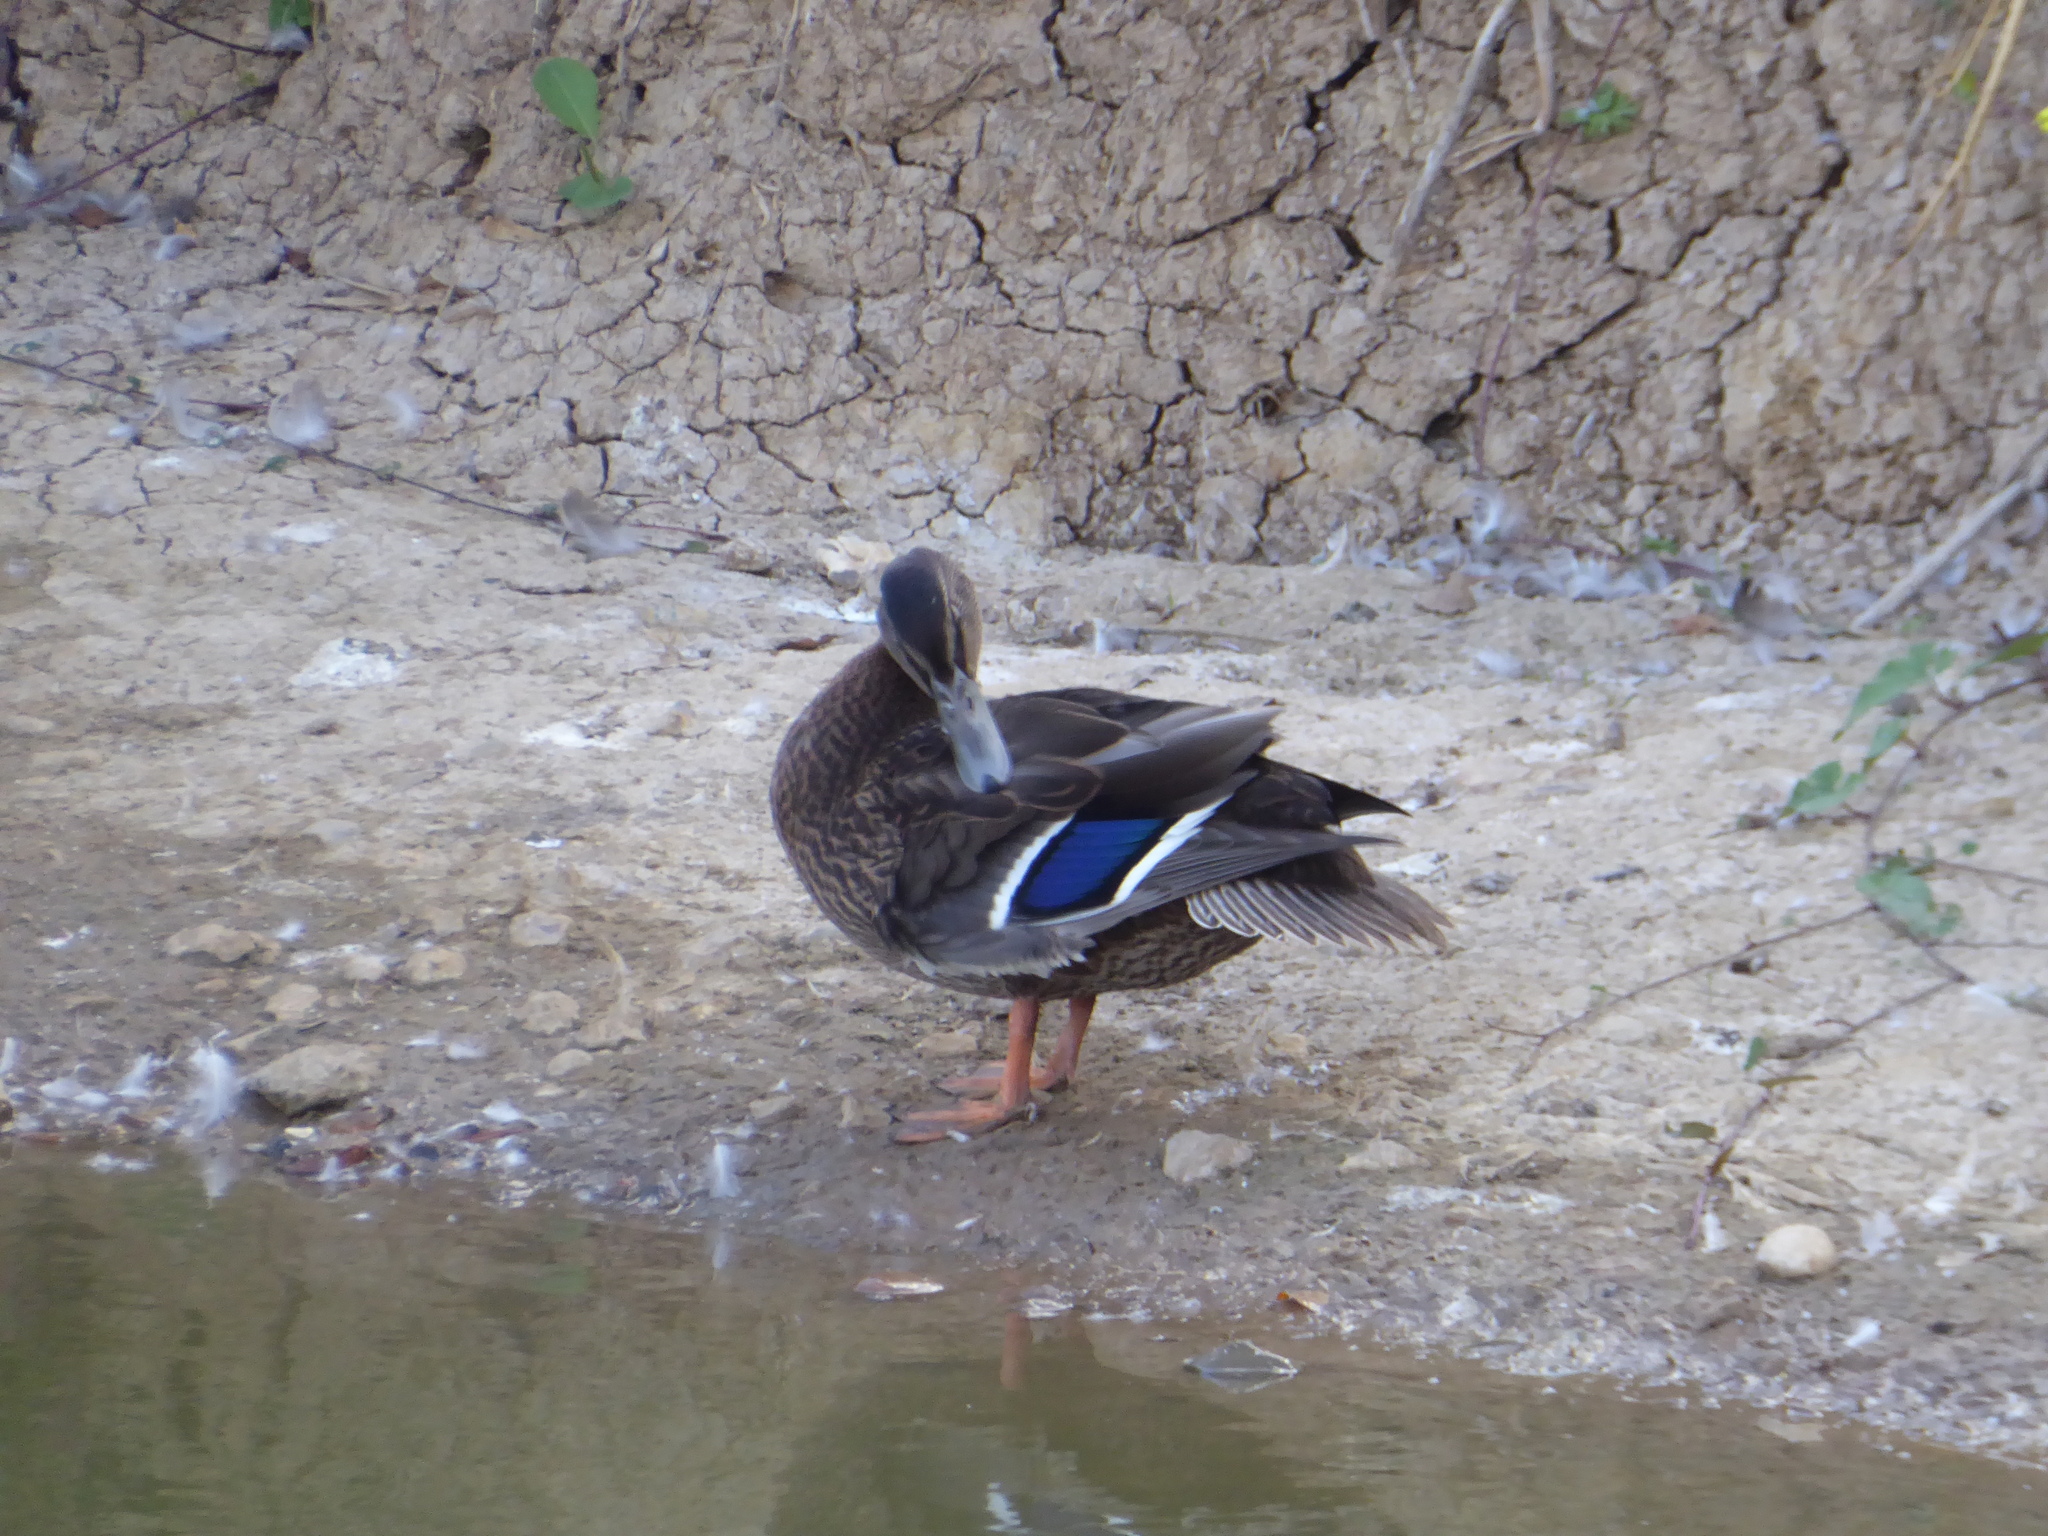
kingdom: Animalia
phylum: Chordata
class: Aves
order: Anseriformes
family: Anatidae
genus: Anas
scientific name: Anas platyrhynchos
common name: Mallard
